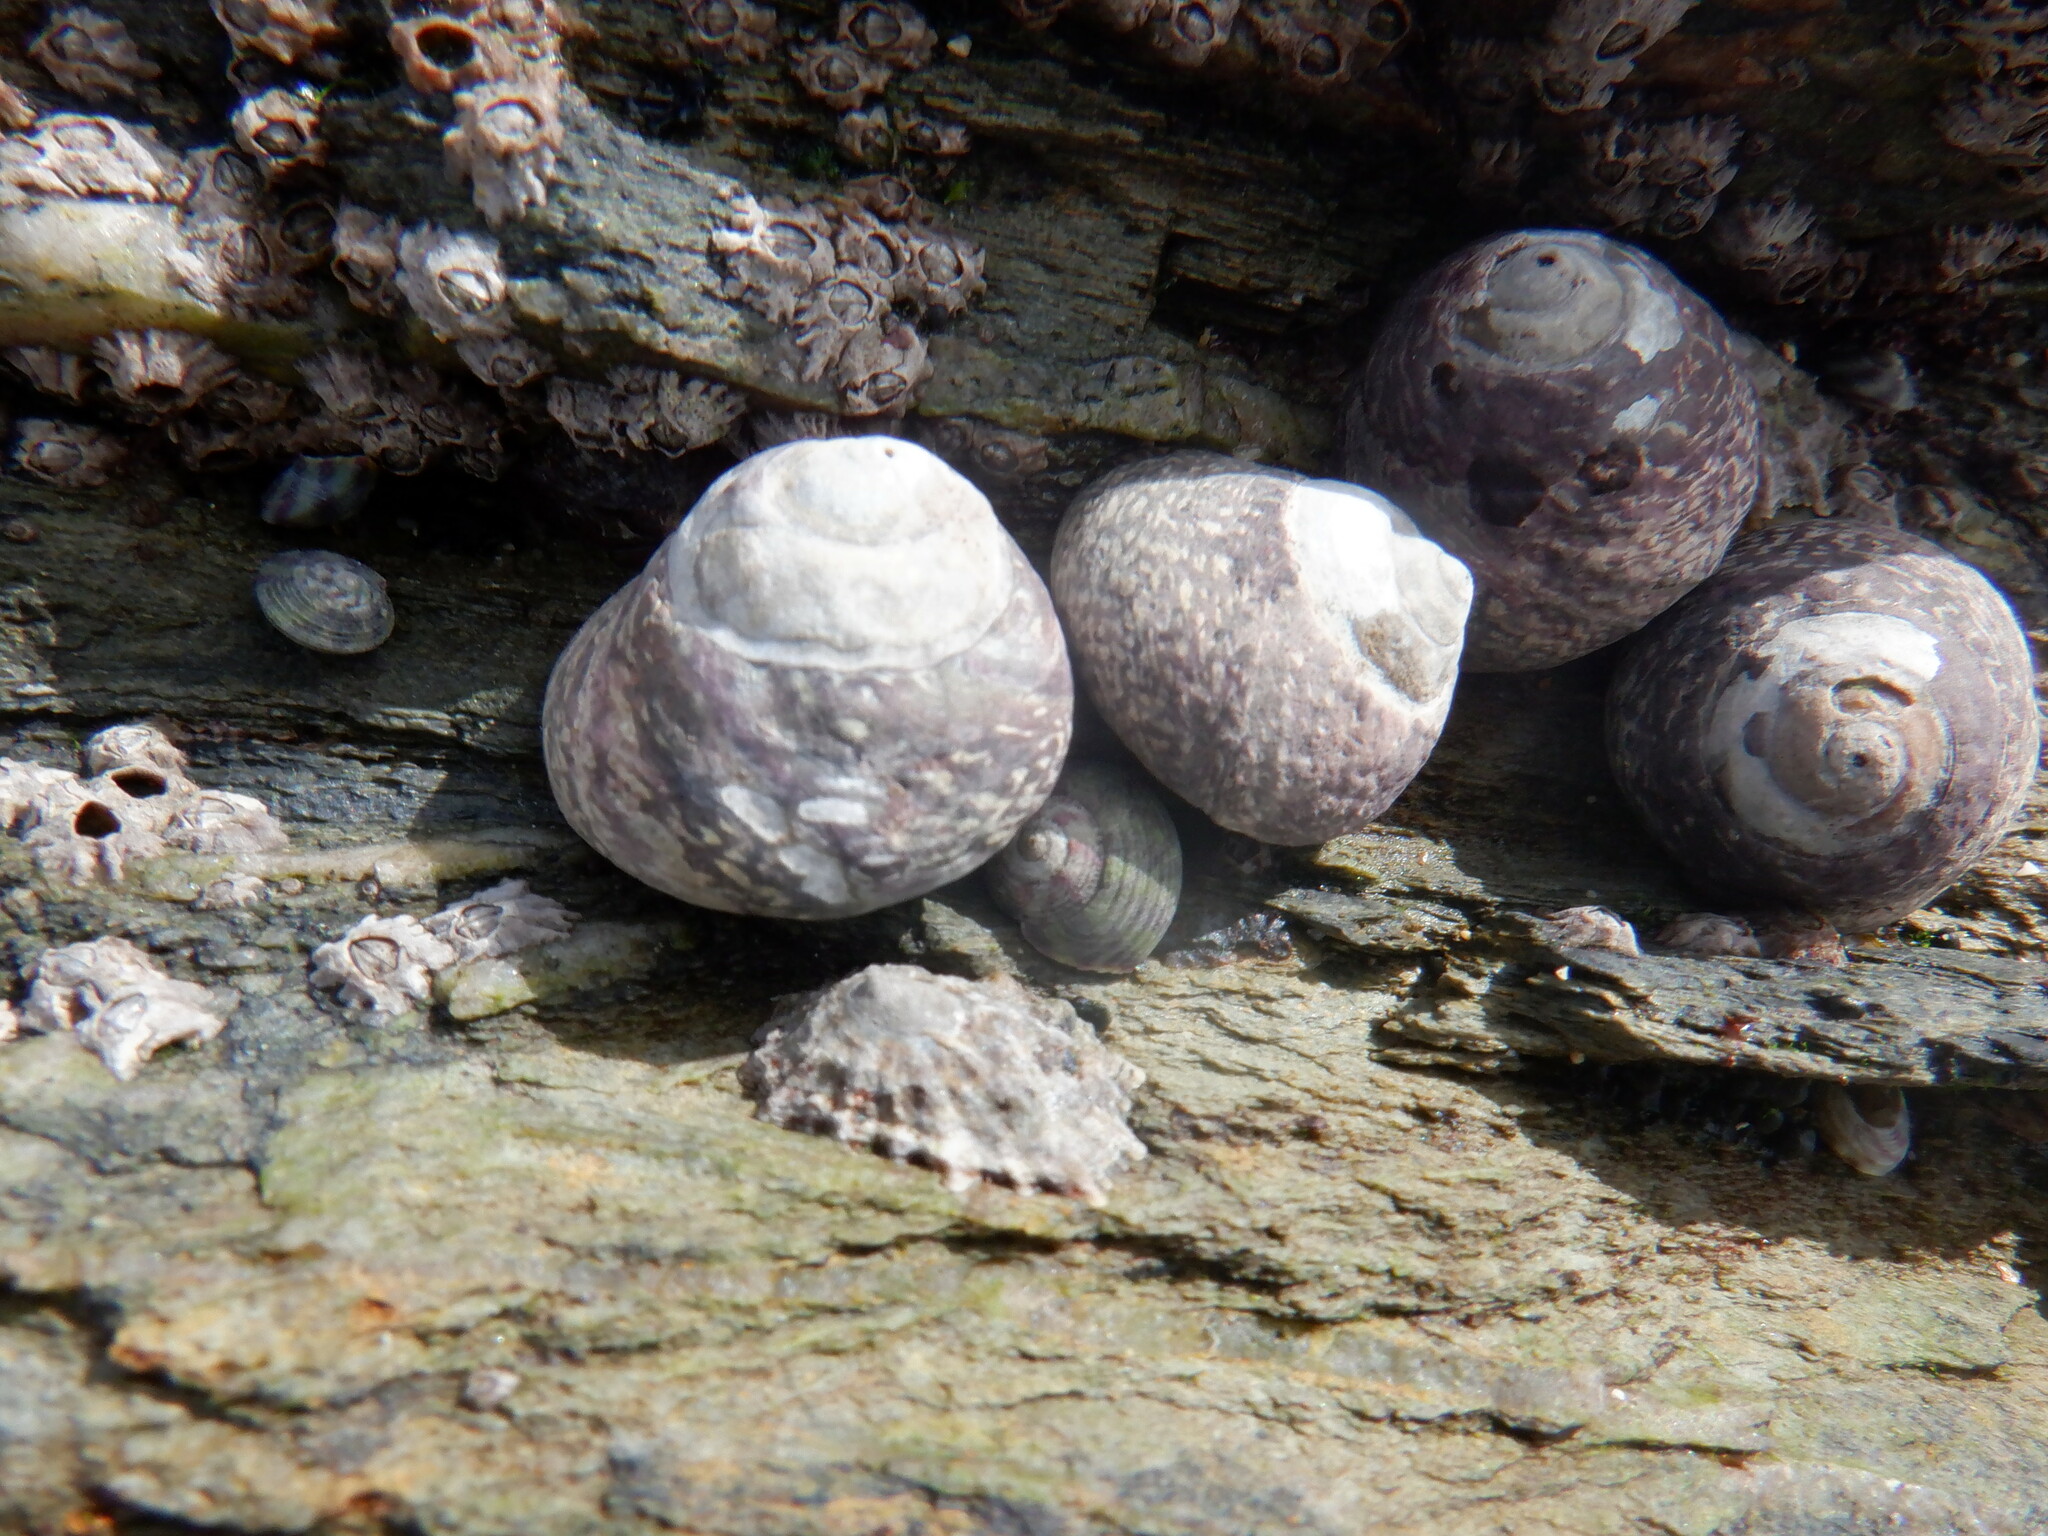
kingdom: Animalia
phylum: Mollusca
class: Gastropoda
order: Trochida
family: Trochidae
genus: Phorcus
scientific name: Phorcus lineatus
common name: Toothed top shell
